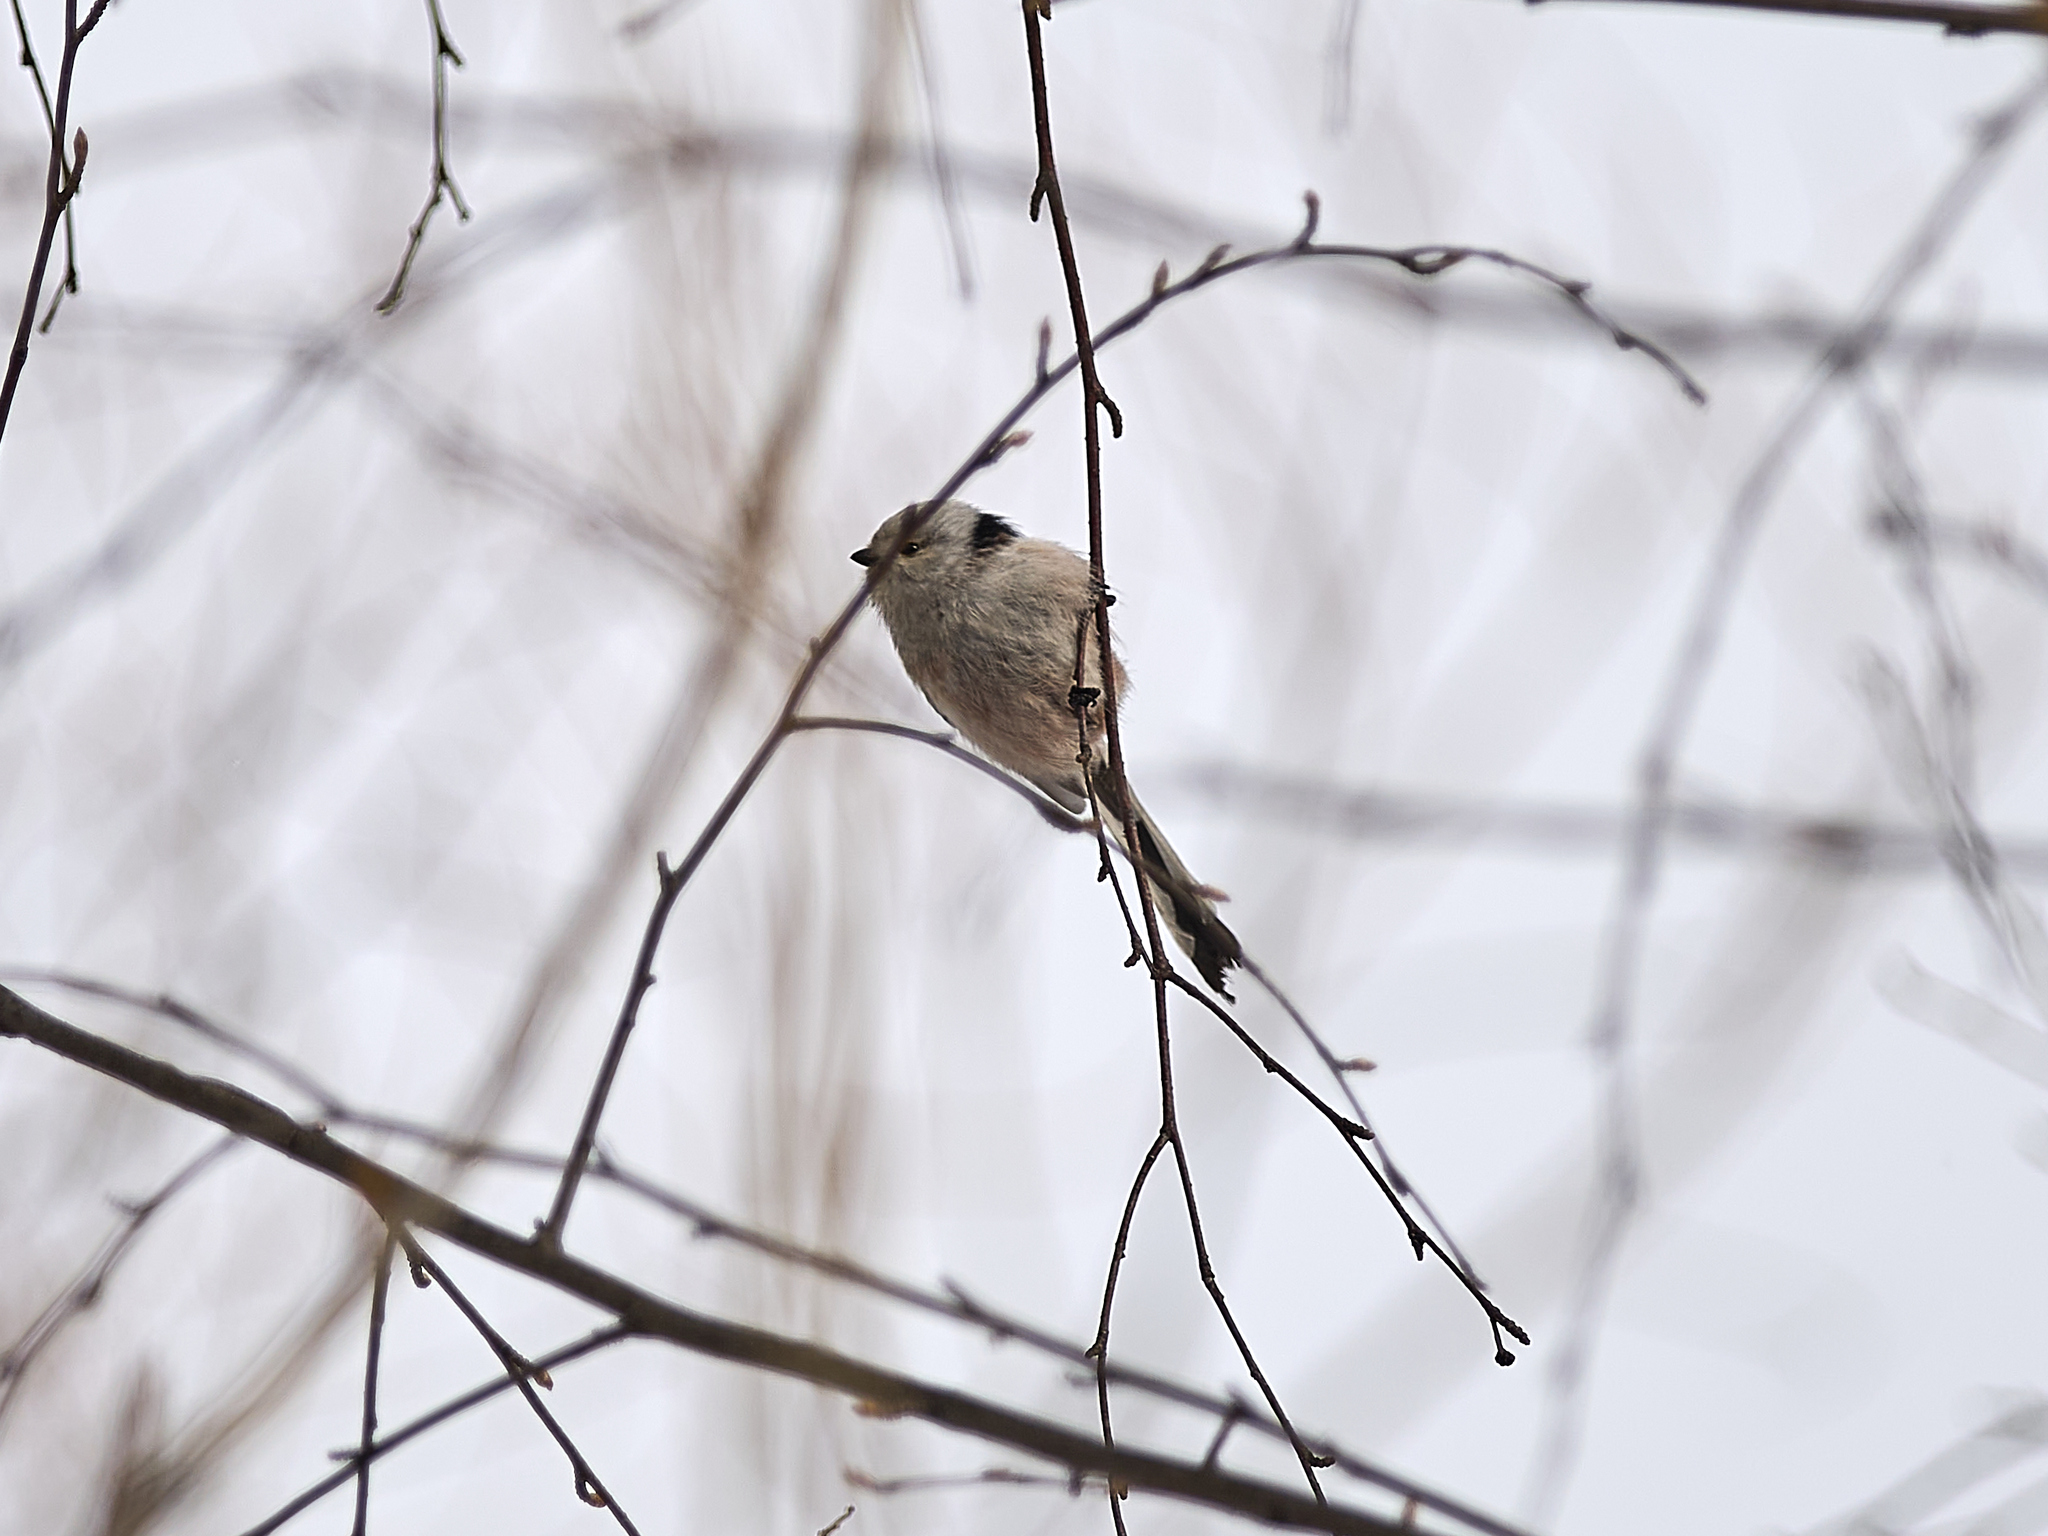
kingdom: Animalia
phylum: Chordata
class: Aves
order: Passeriformes
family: Aegithalidae
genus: Aegithalos
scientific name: Aegithalos caudatus
